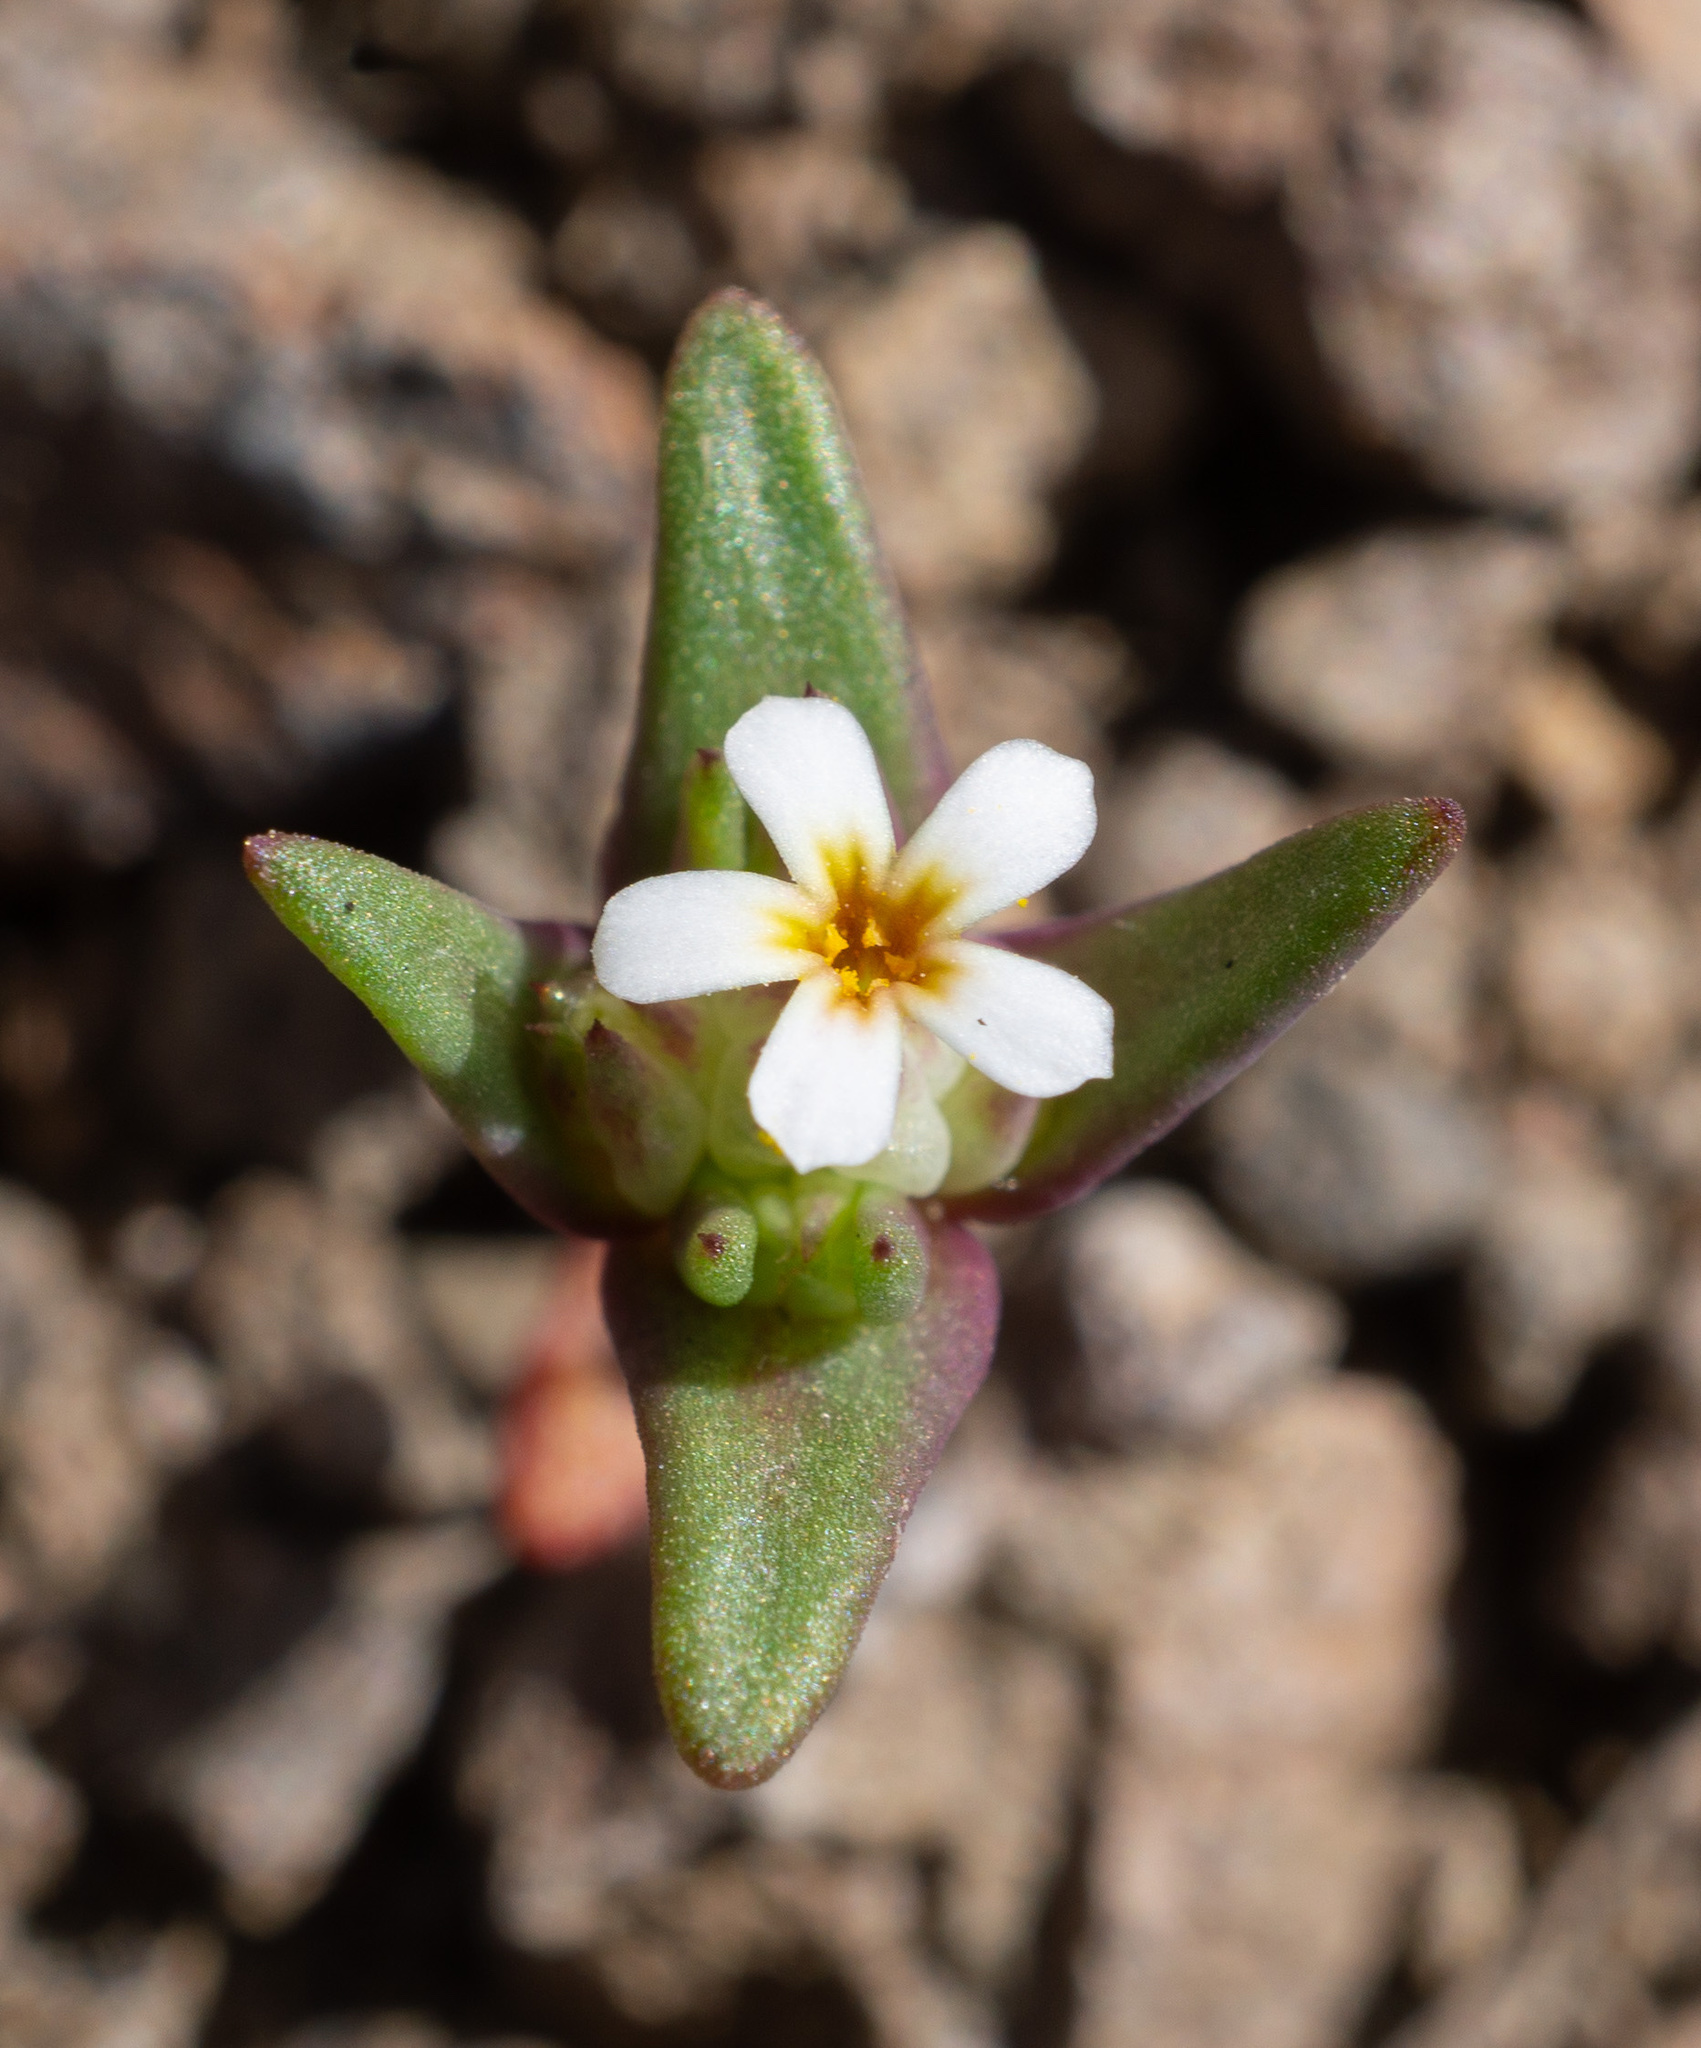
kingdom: Plantae
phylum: Tracheophyta
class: Magnoliopsida
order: Ericales
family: Polemoniaceae
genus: Gymnosteris
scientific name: Gymnosteris parvula
